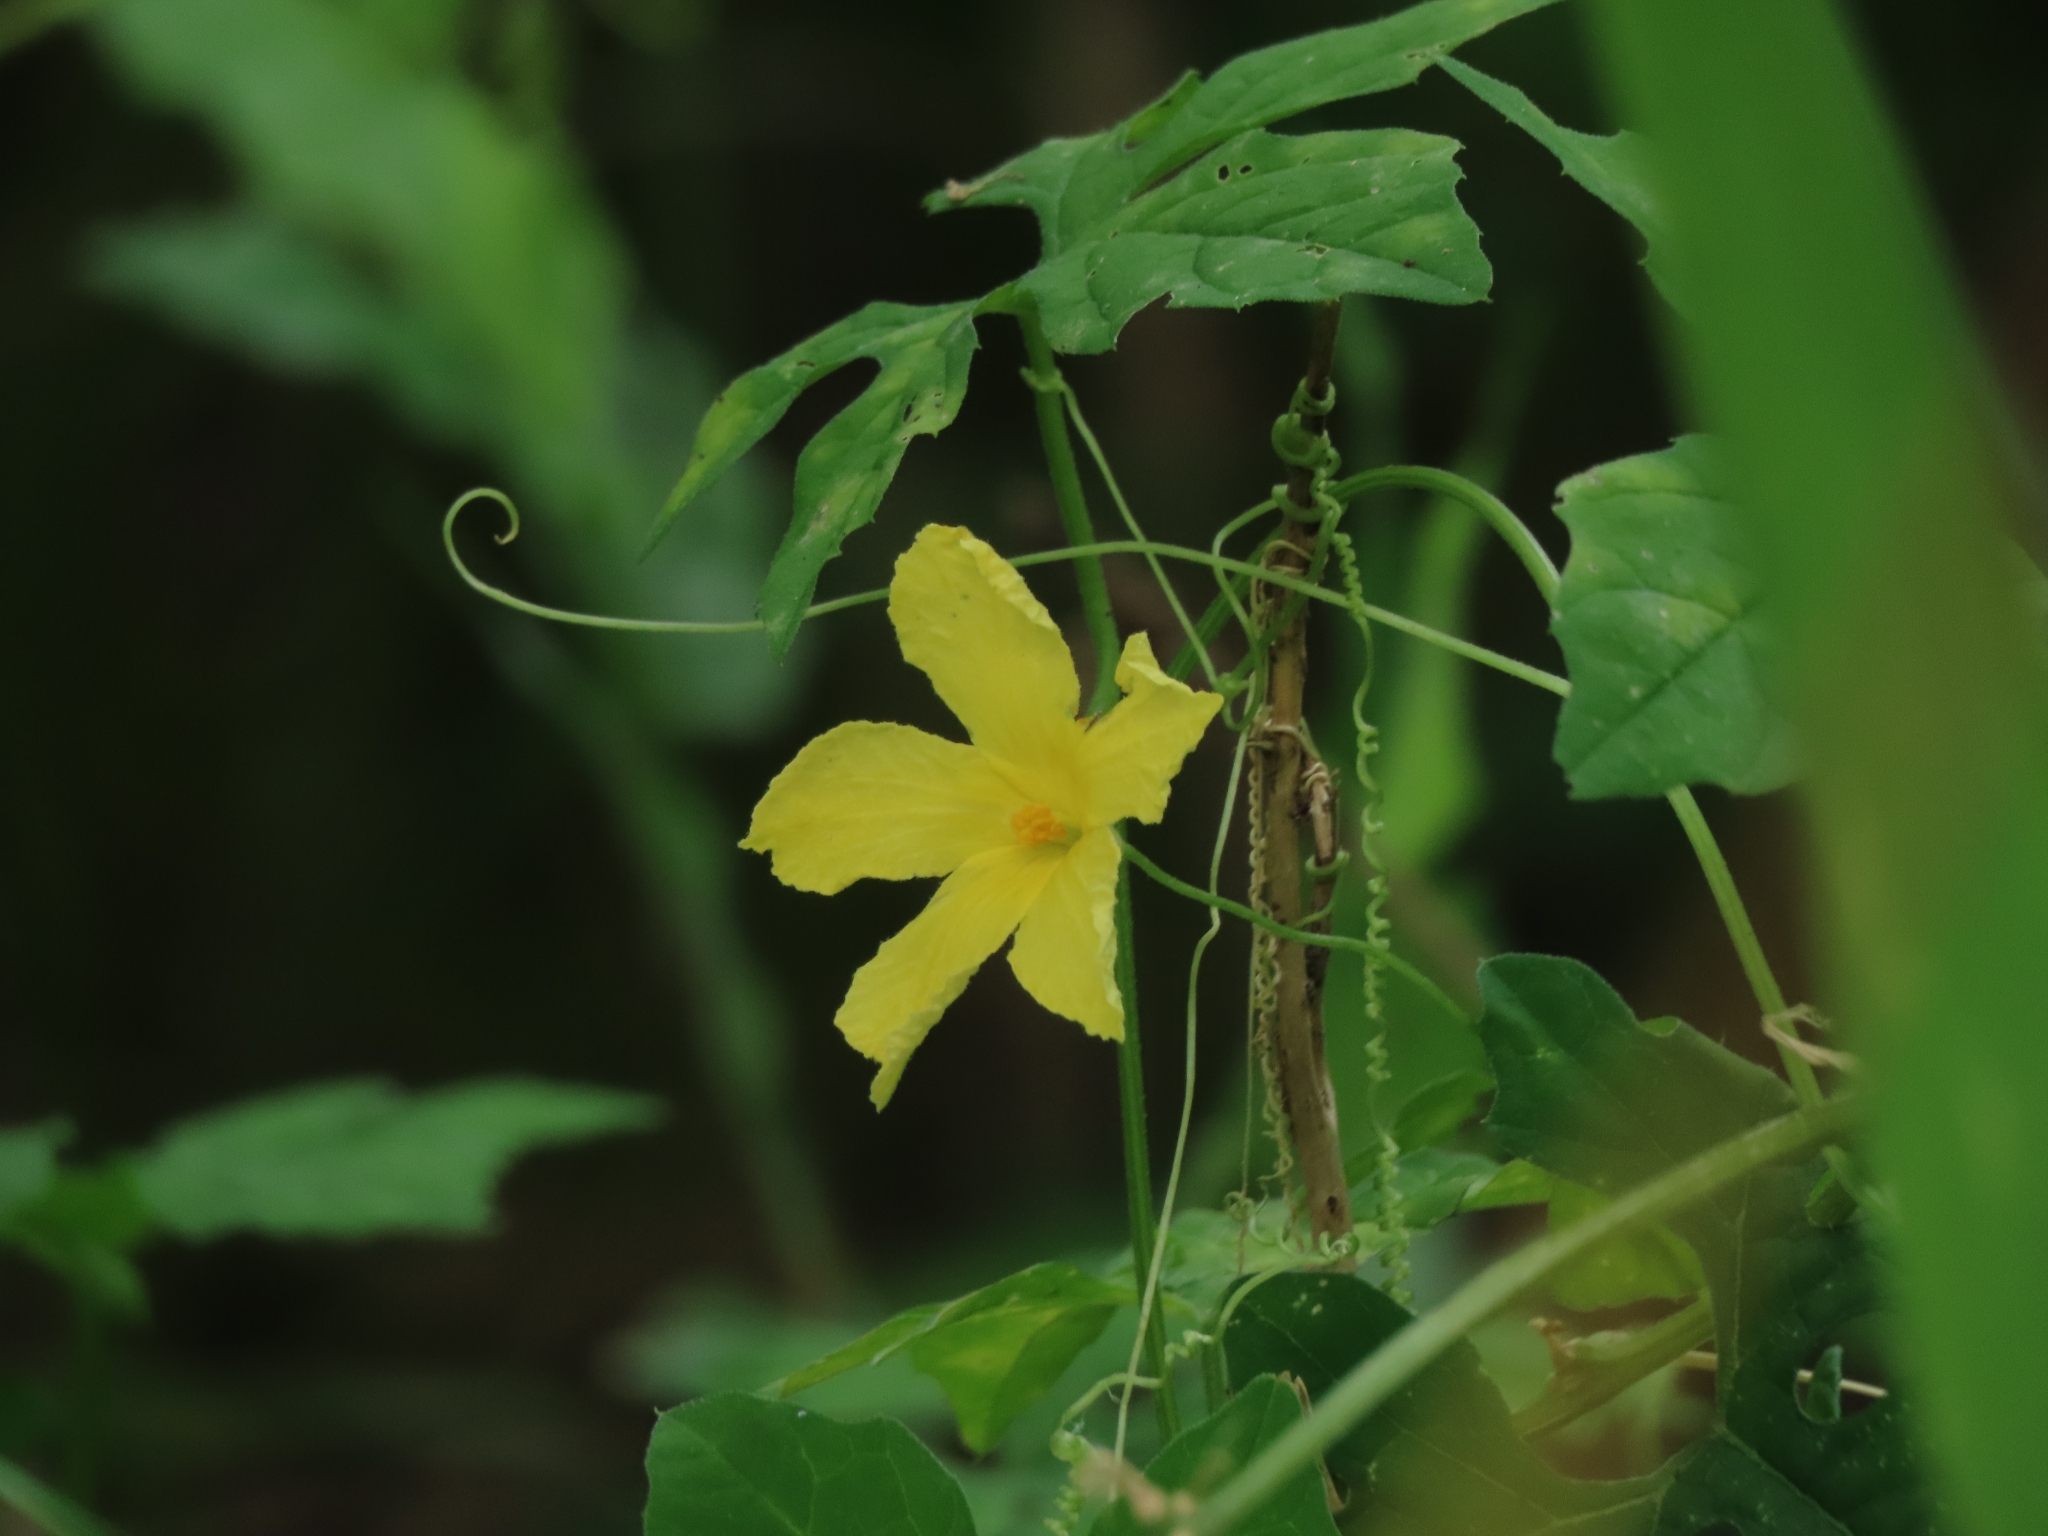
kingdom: Plantae
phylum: Tracheophyta
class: Magnoliopsida
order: Cucurbitales
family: Cucurbitaceae
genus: Momordica
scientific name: Momordica charantia
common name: Balsampear
